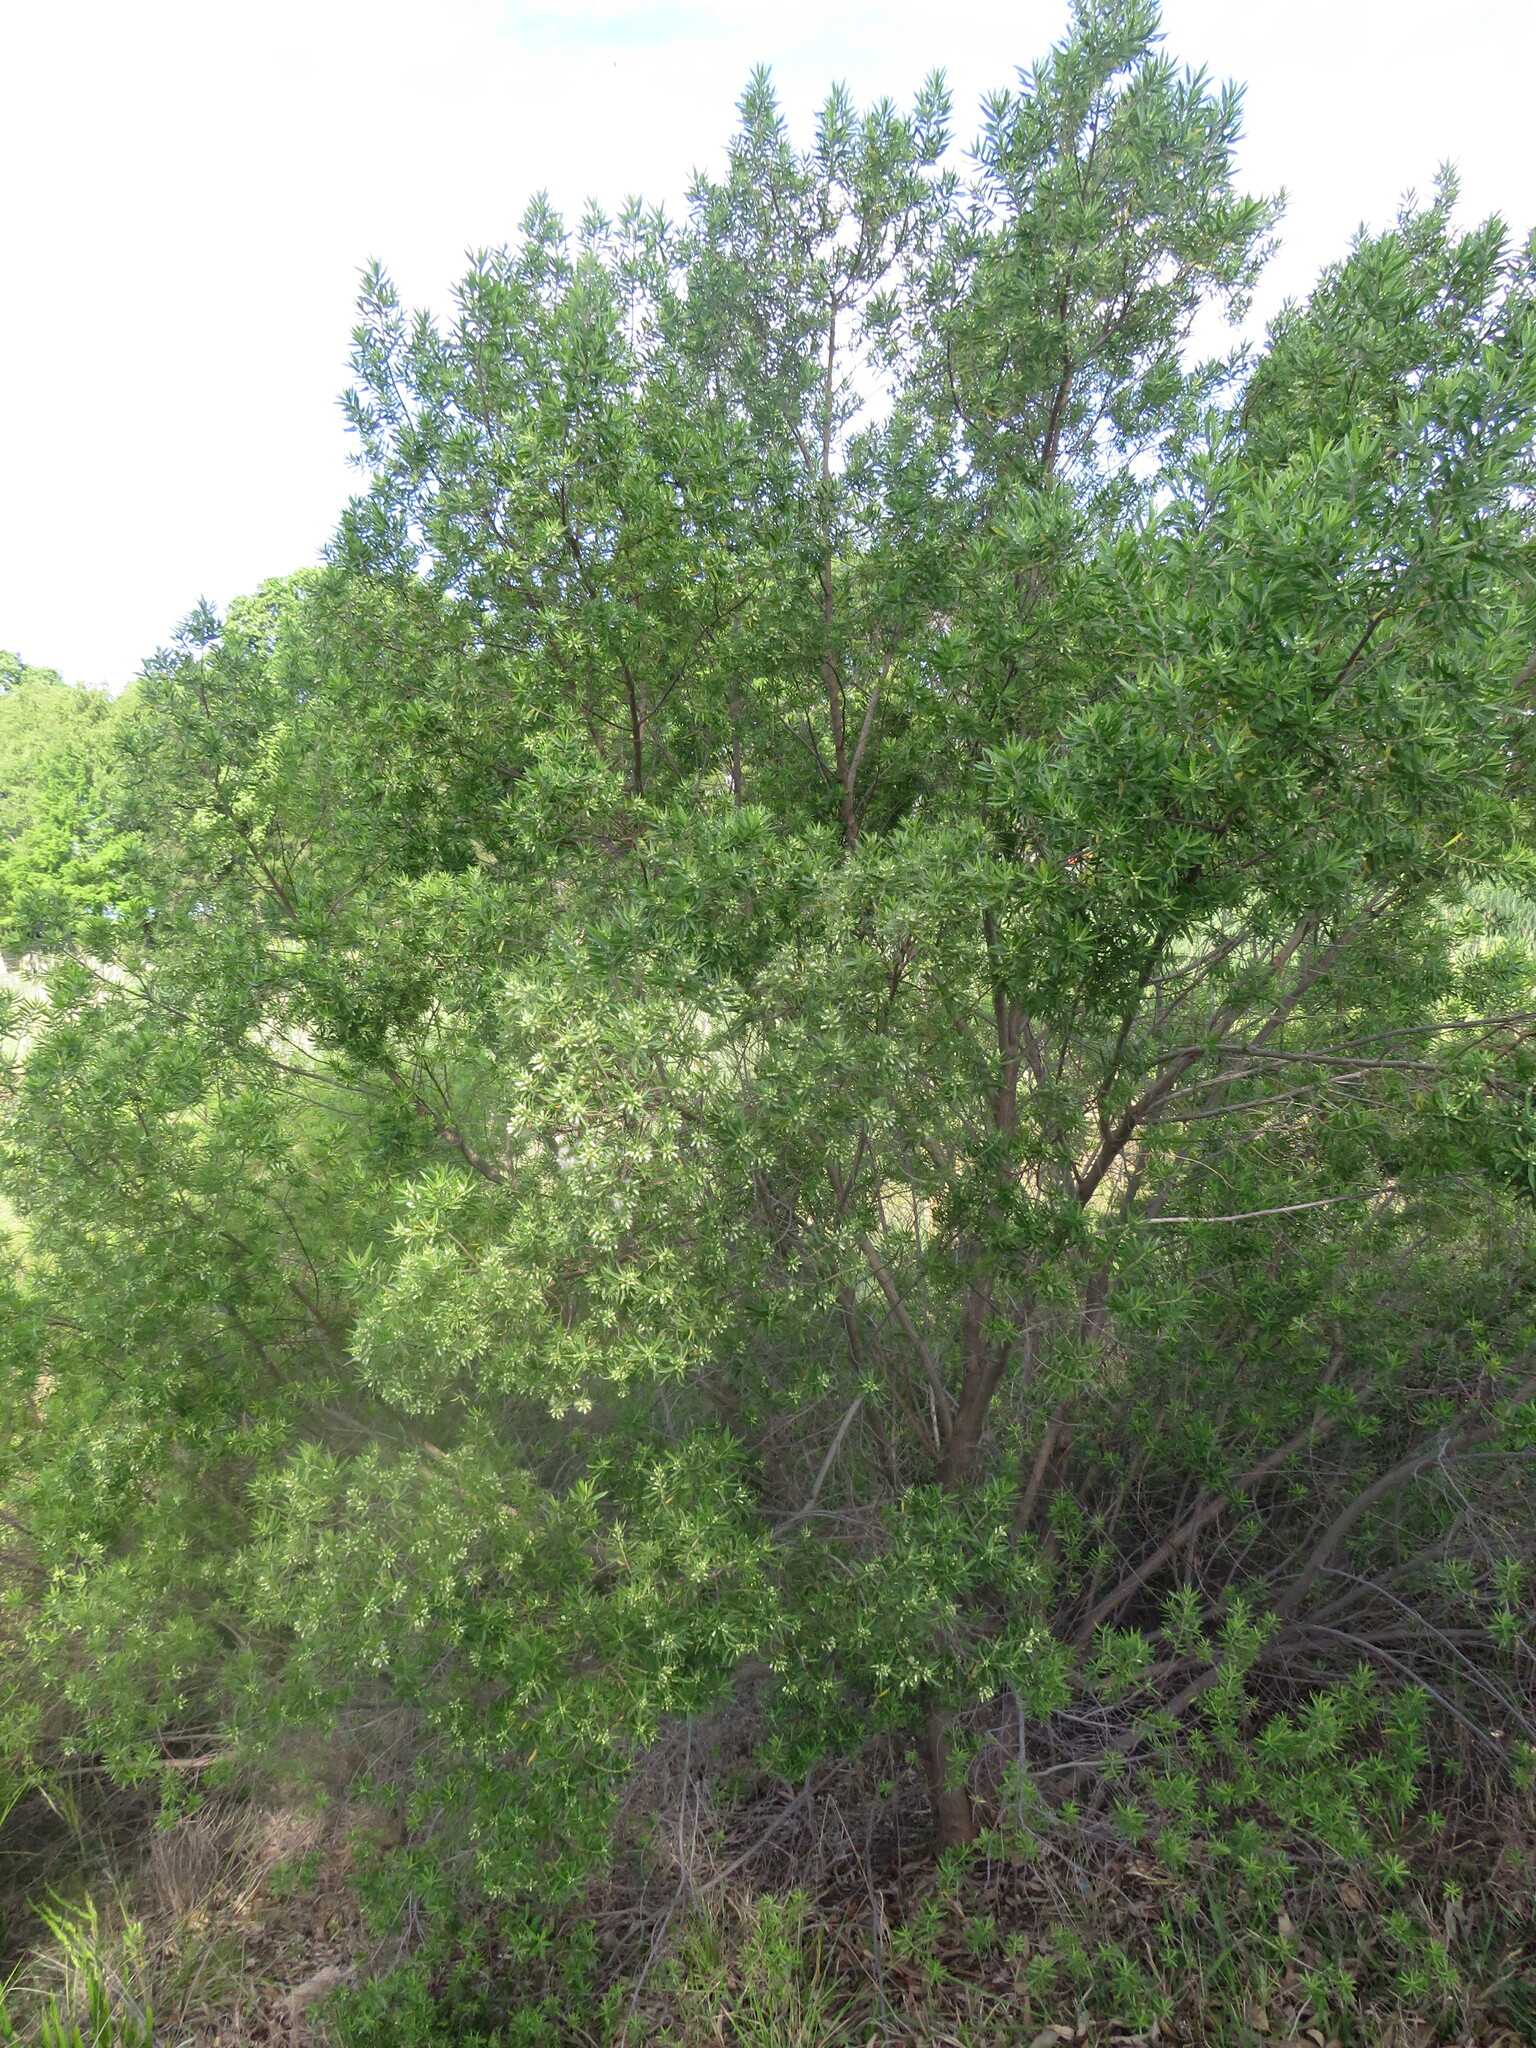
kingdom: Plantae
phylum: Tracheophyta
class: Magnoliopsida
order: Asterales
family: Asteraceae
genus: Baccharis
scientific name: Baccharis dracunculifolia
